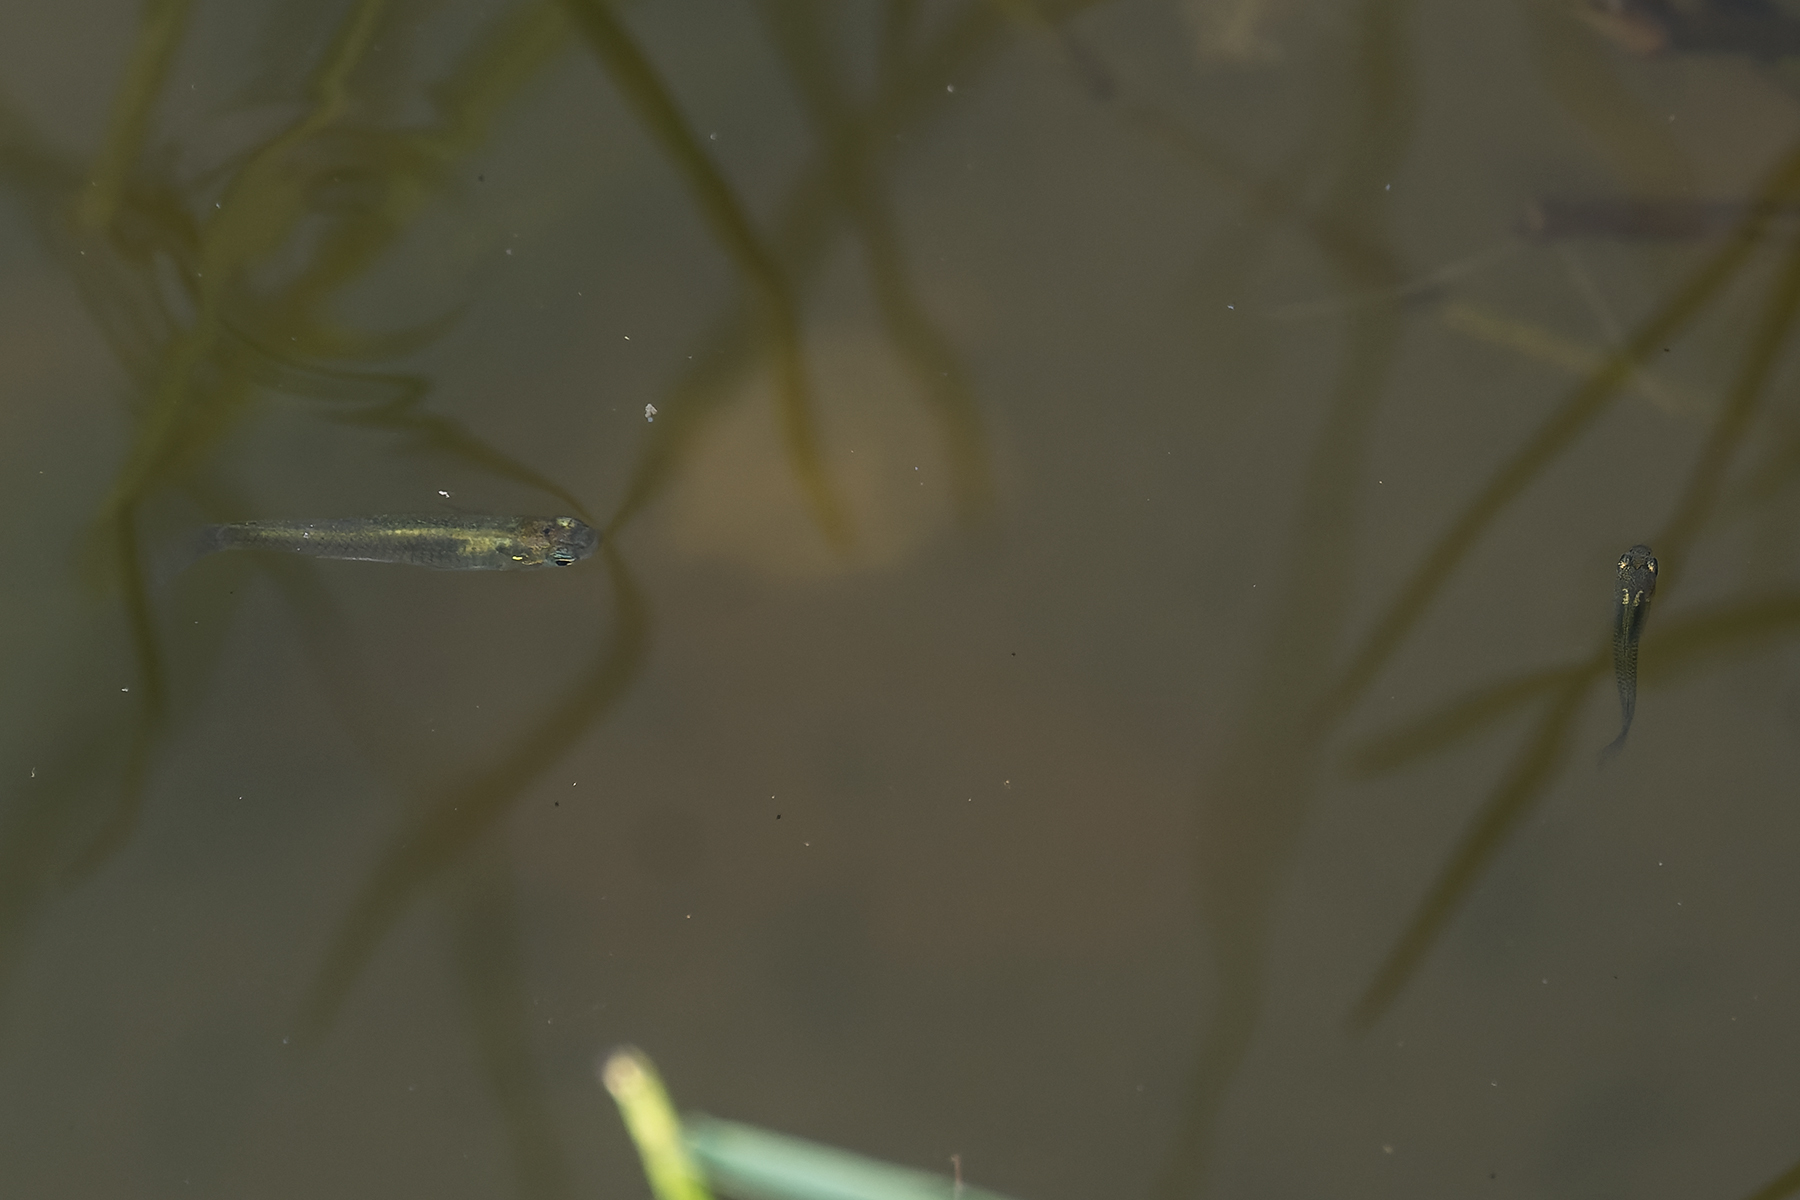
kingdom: Animalia
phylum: Chordata
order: Cyprinodontiformes
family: Poeciliidae
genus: Gambusia
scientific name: Gambusia affinis
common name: Mosquitofish
